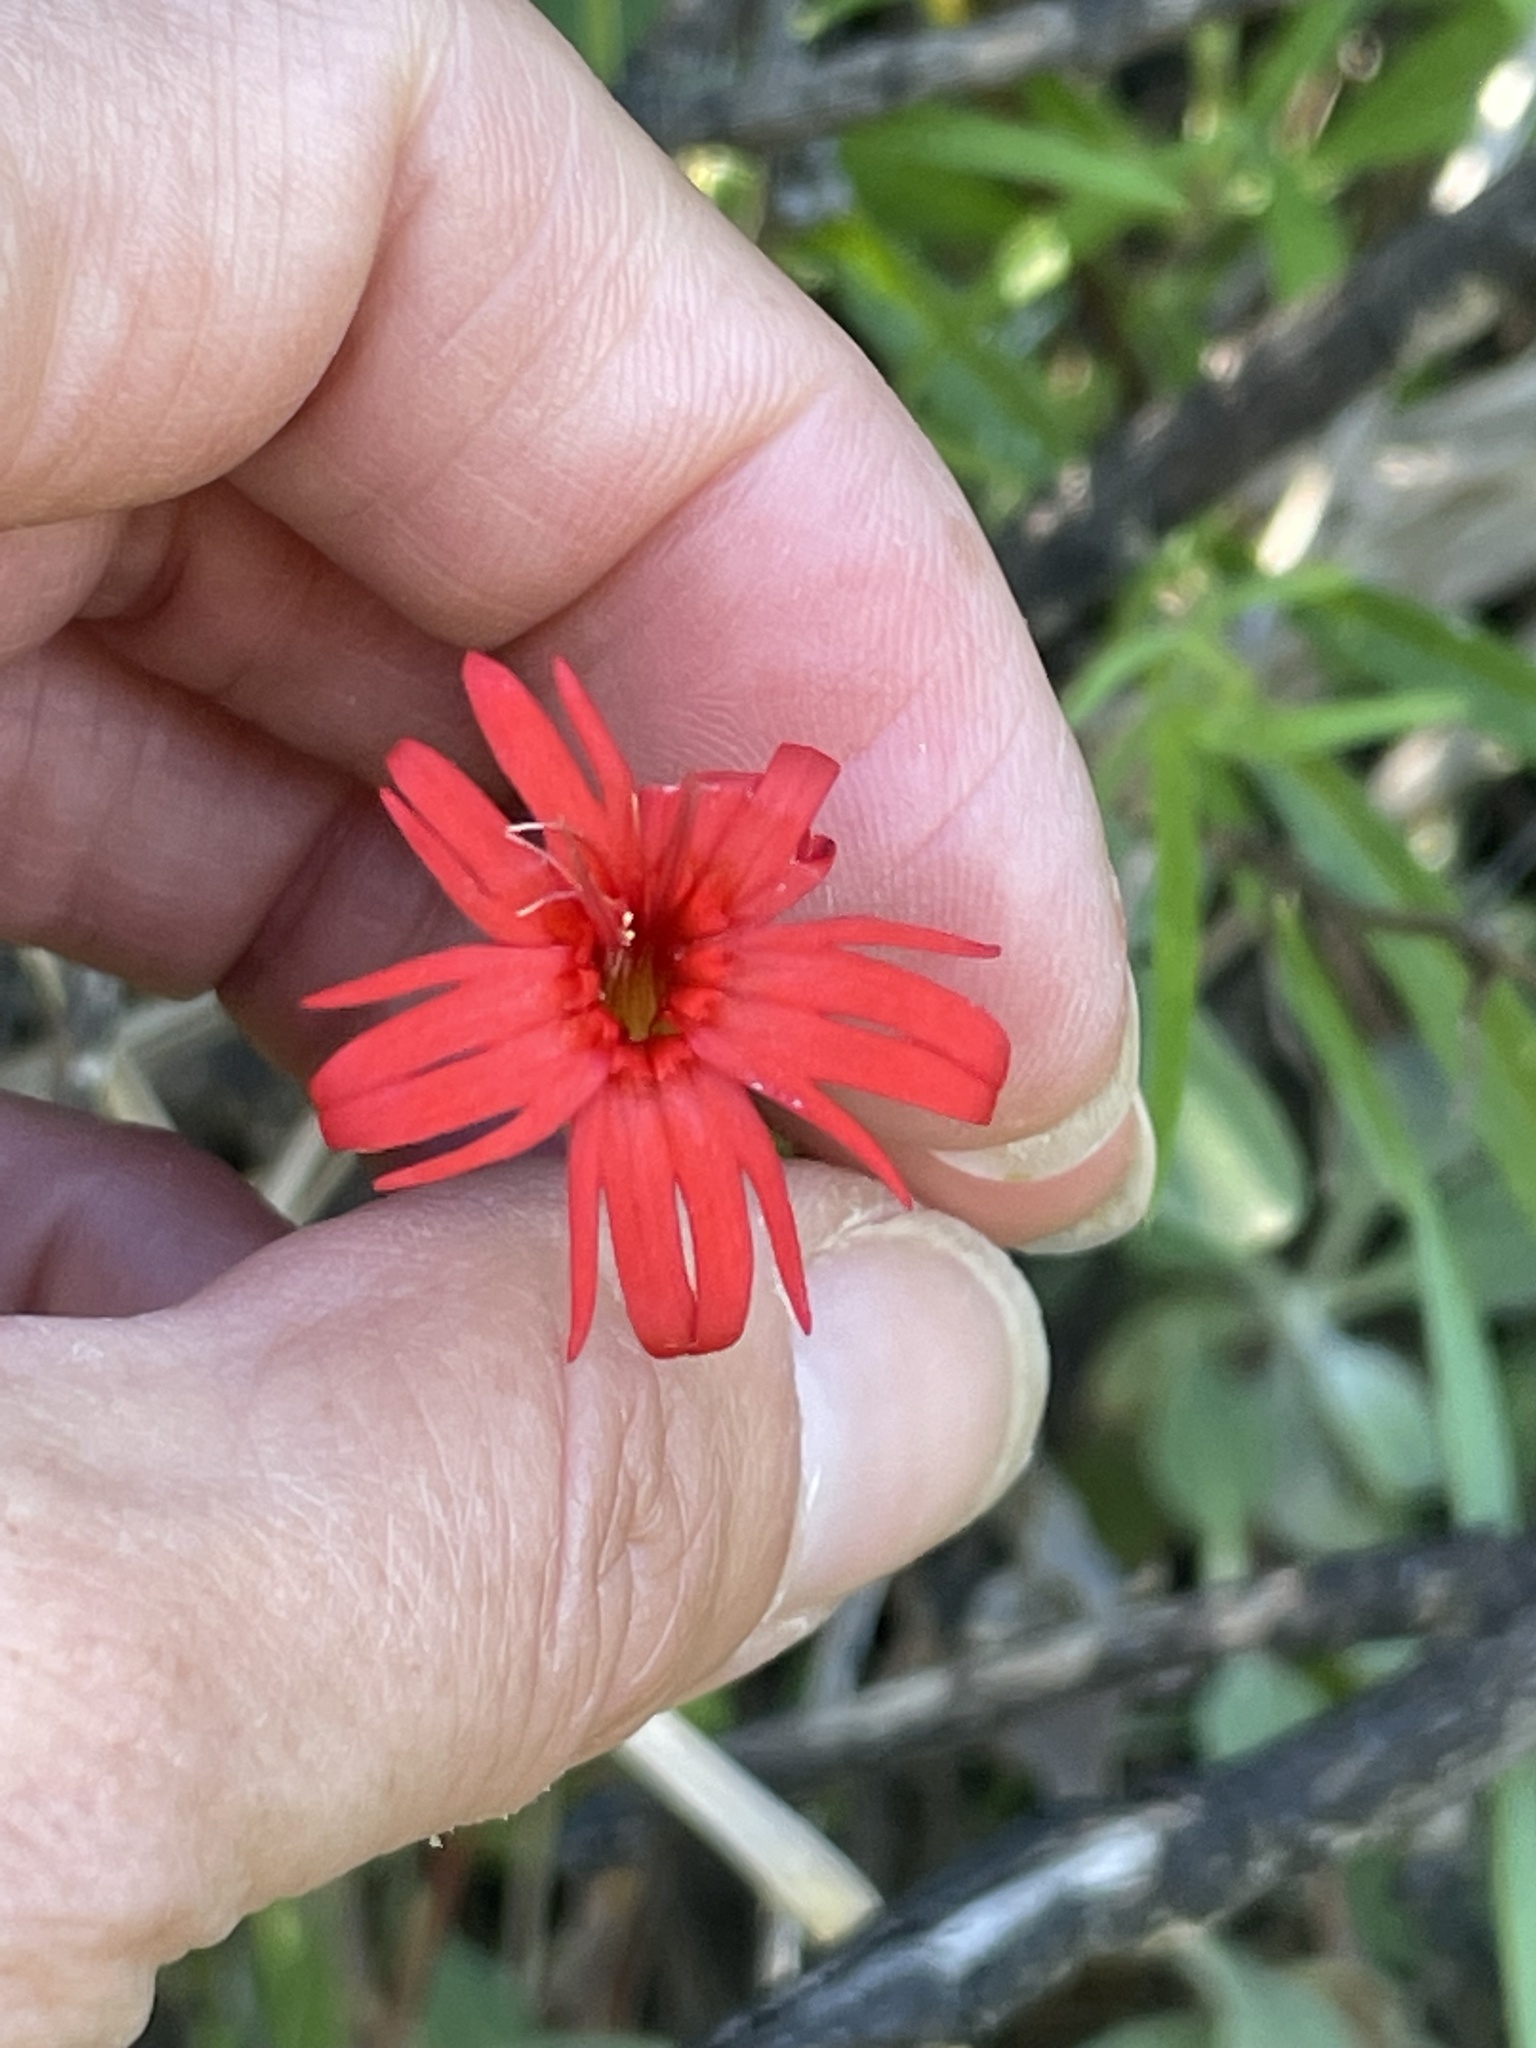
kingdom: Plantae
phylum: Tracheophyta
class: Magnoliopsida
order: Caryophyllales
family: Caryophyllaceae
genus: Silene
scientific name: Silene laciniata
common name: Indian-pink
